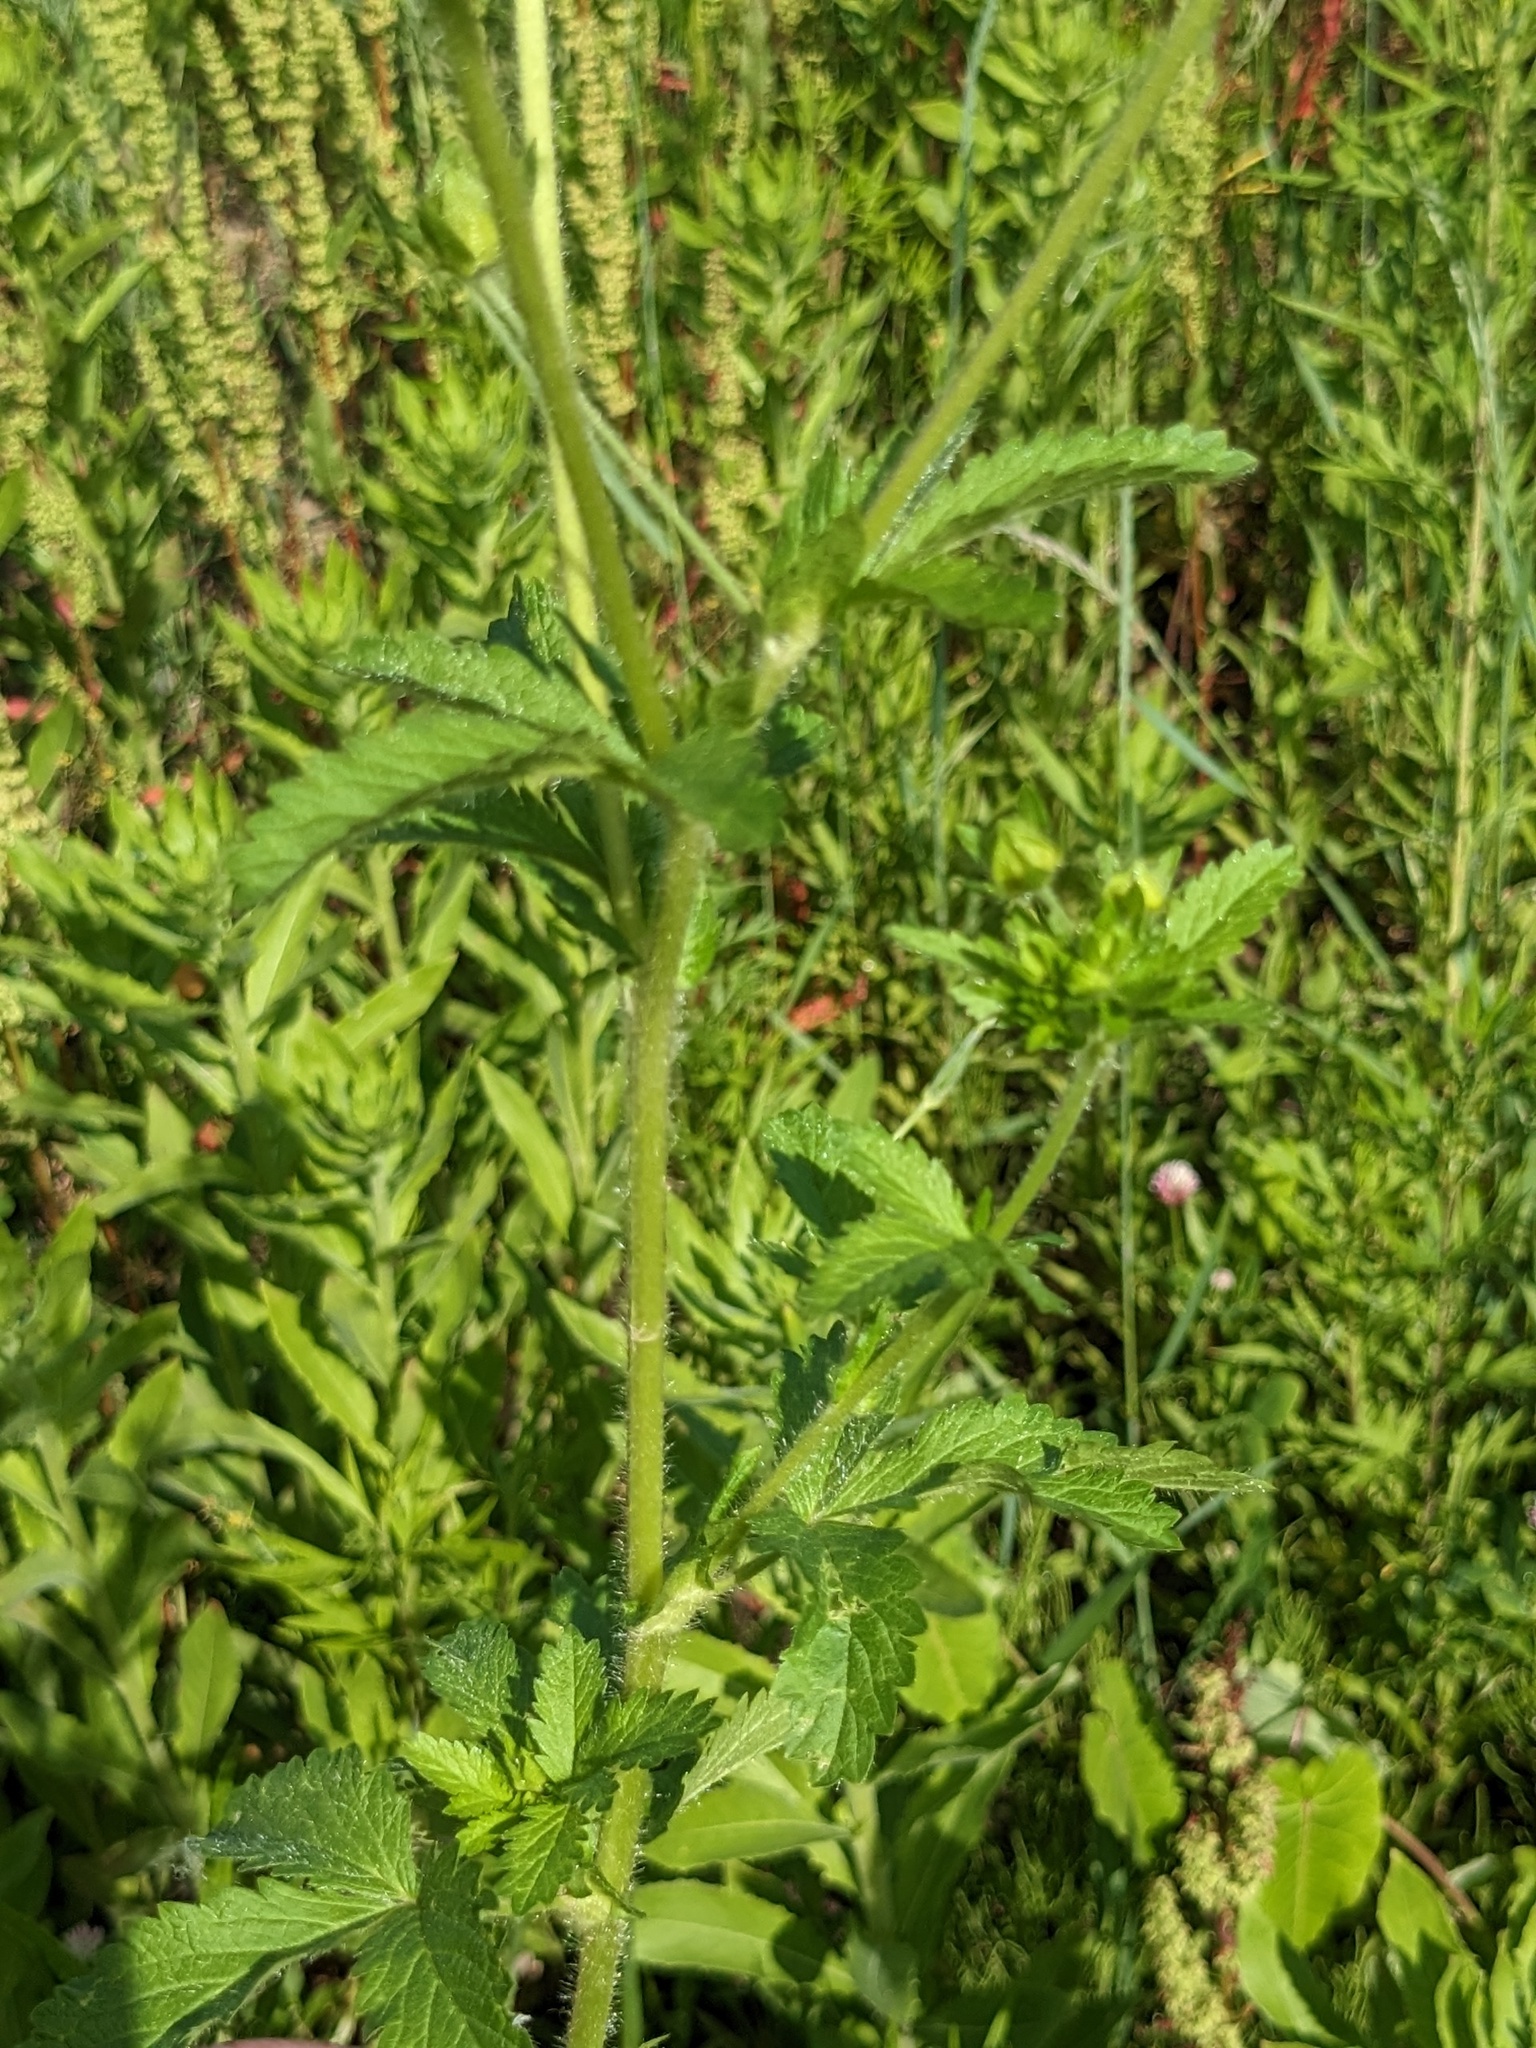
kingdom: Plantae
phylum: Tracheophyta
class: Magnoliopsida
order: Rosales
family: Rosaceae
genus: Potentilla
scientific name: Potentilla norvegica
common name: Ternate-leaved cinquefoil
